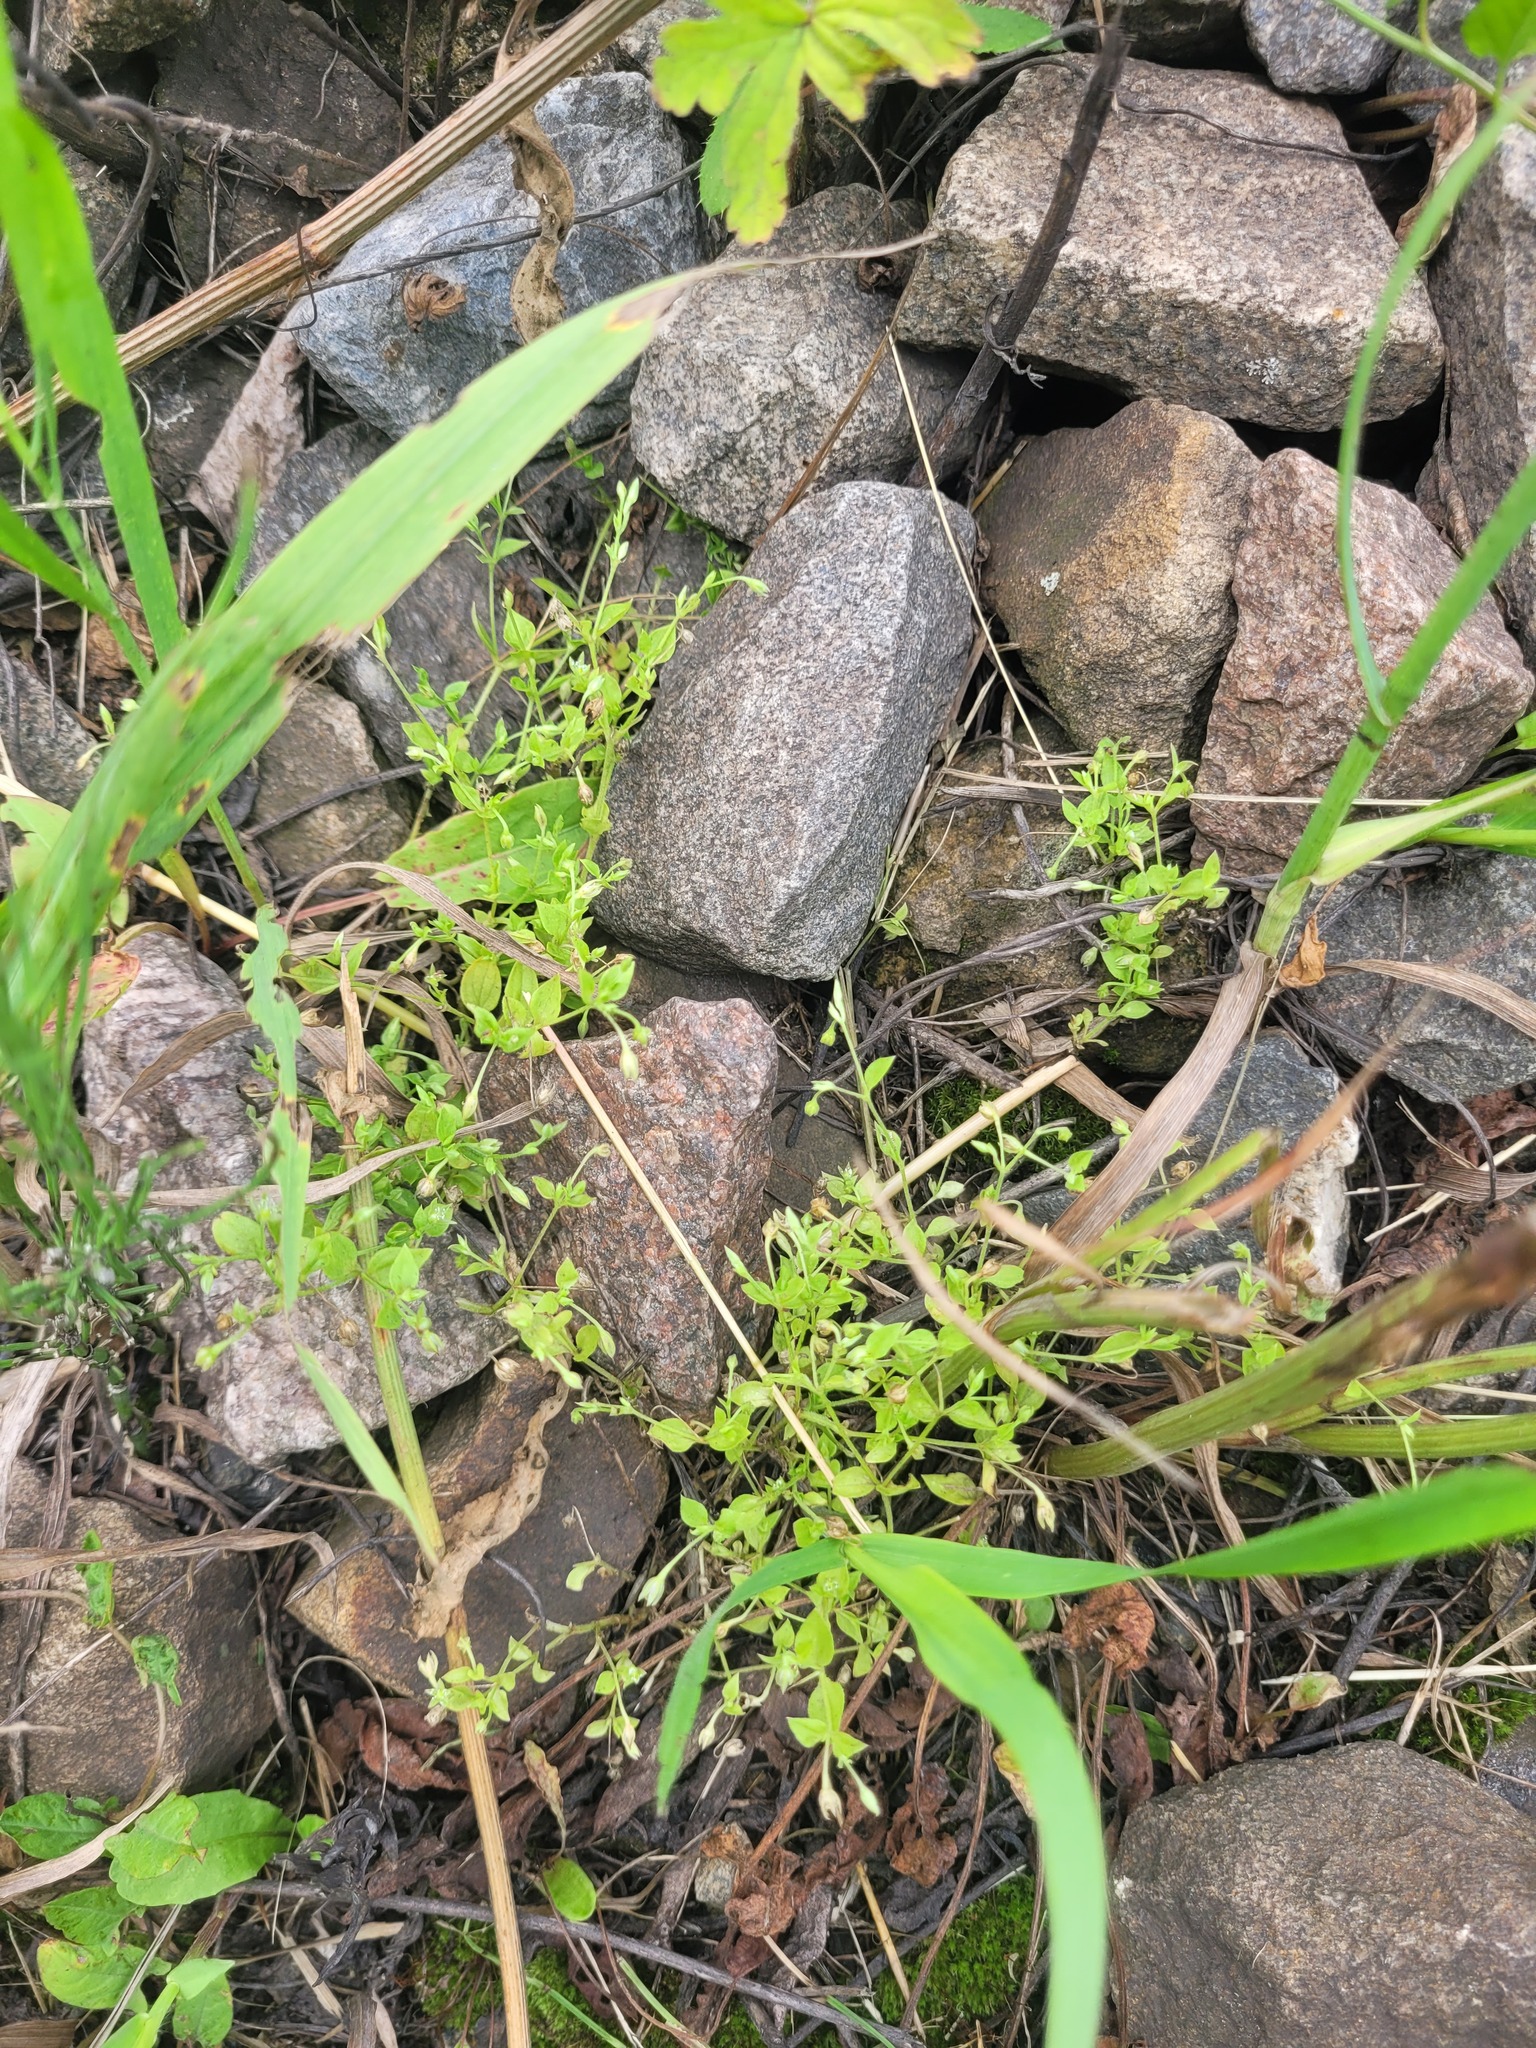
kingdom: Plantae
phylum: Tracheophyta
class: Magnoliopsida
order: Caryophyllales
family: Caryophyllaceae
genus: Moehringia
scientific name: Moehringia trinervia
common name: Three-nerved sandwort
